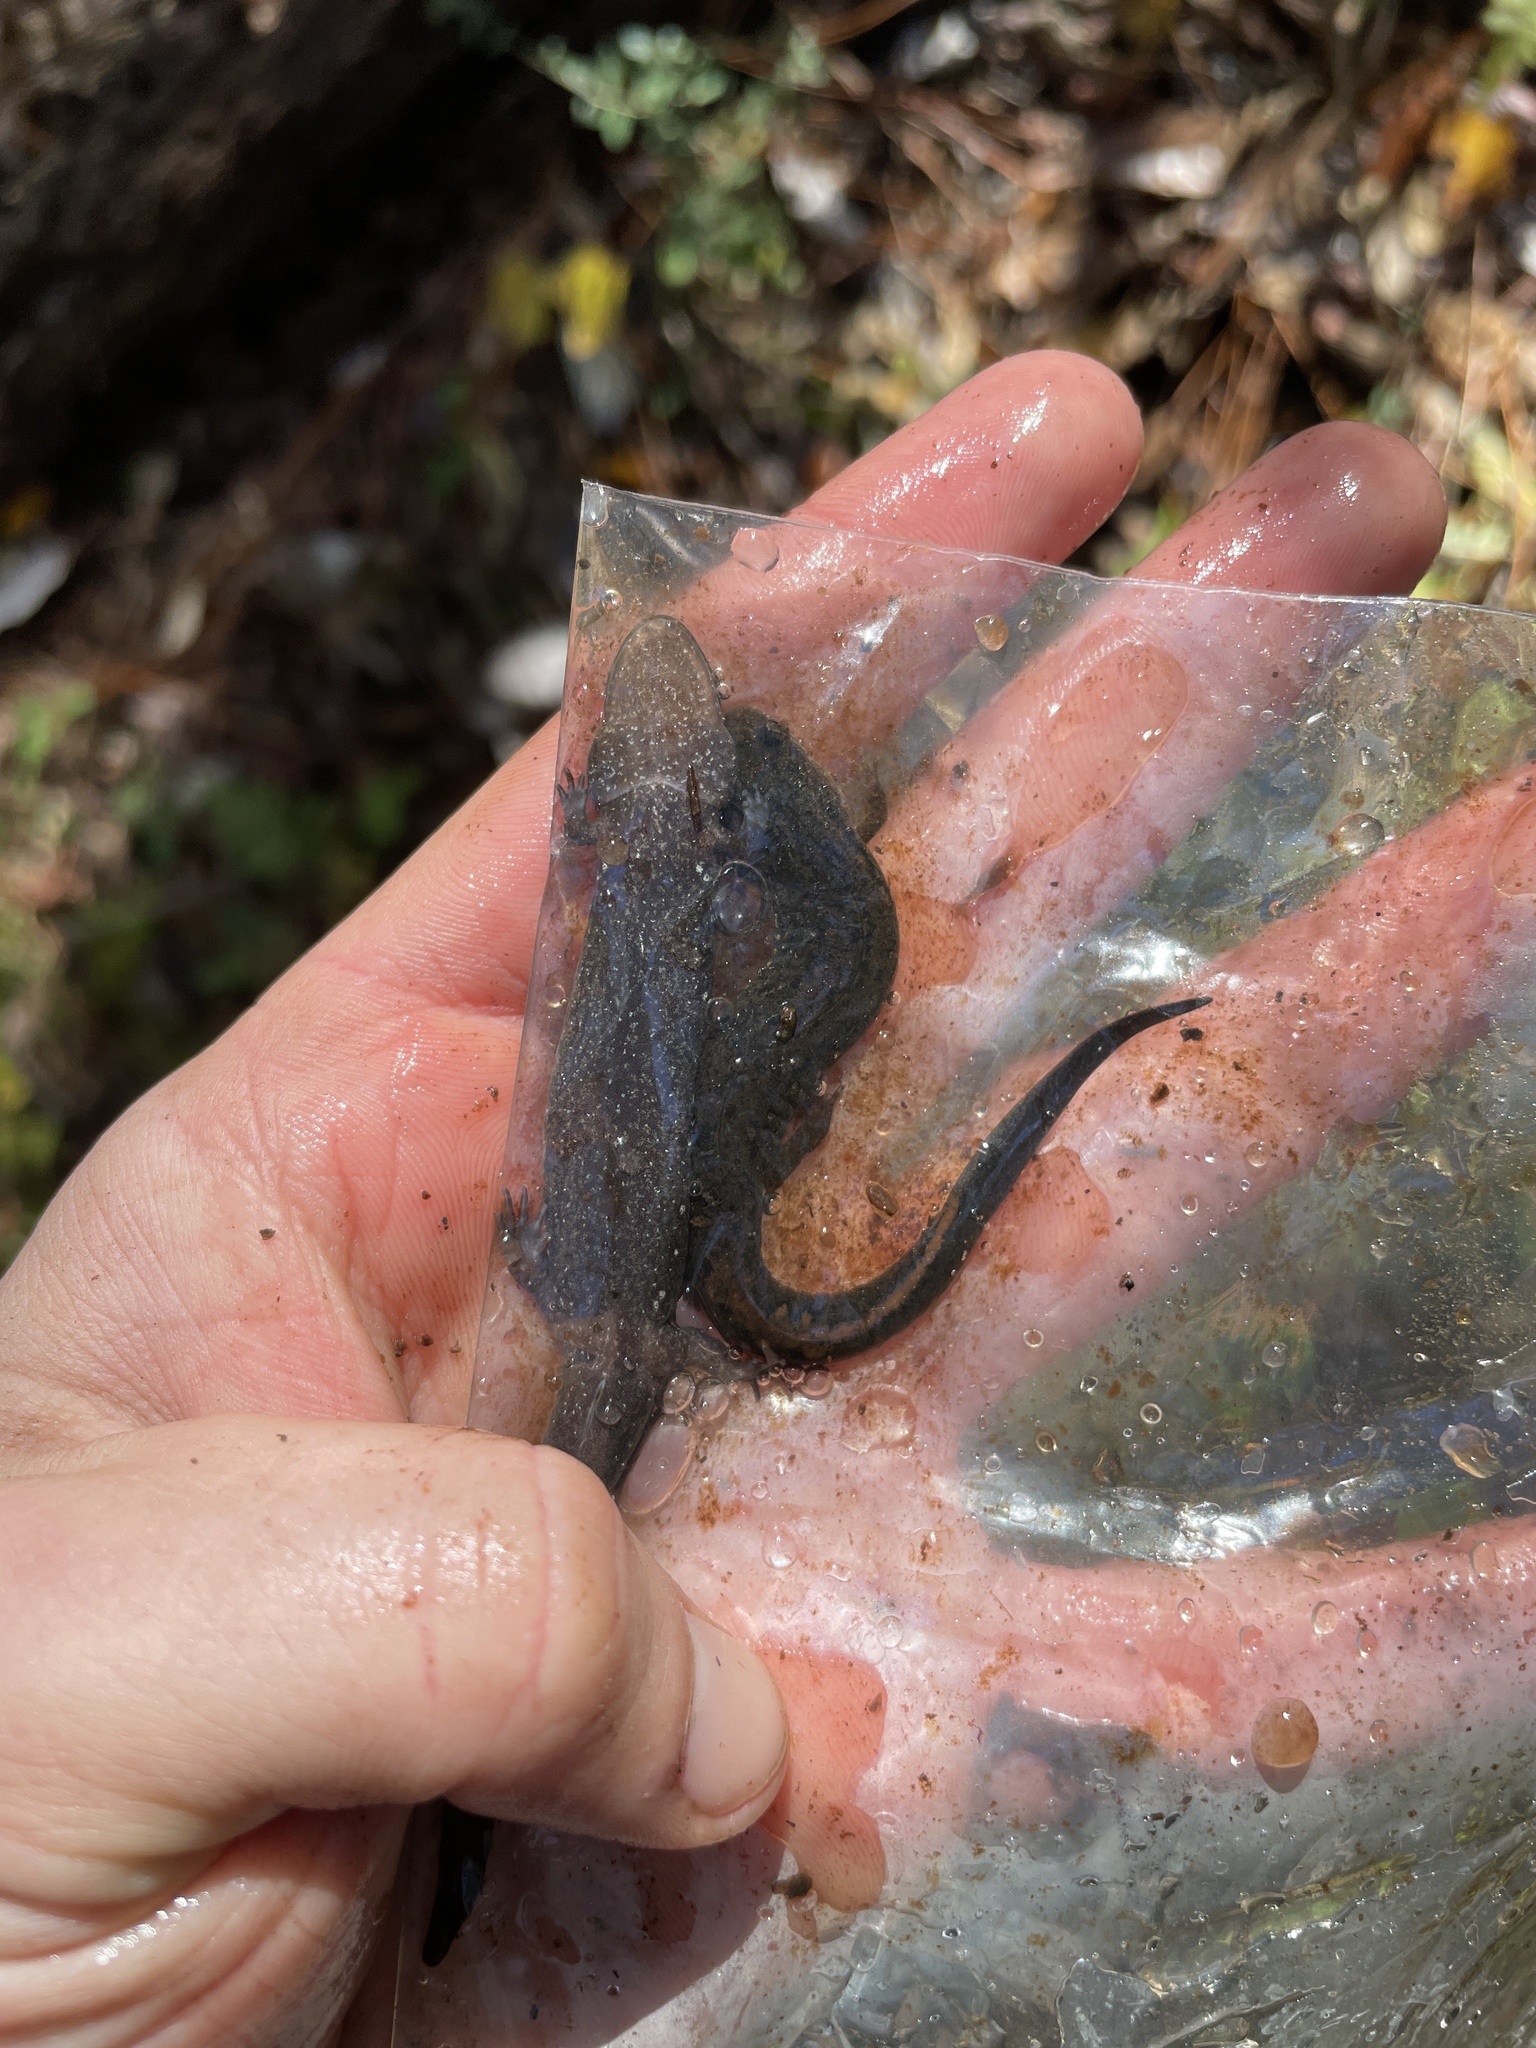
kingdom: Animalia
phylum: Chordata
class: Amphibia
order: Caudata
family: Plethodontidae
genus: Desmognathus
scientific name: Desmognathus valentinei
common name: Valentine's southern dusky salamander
